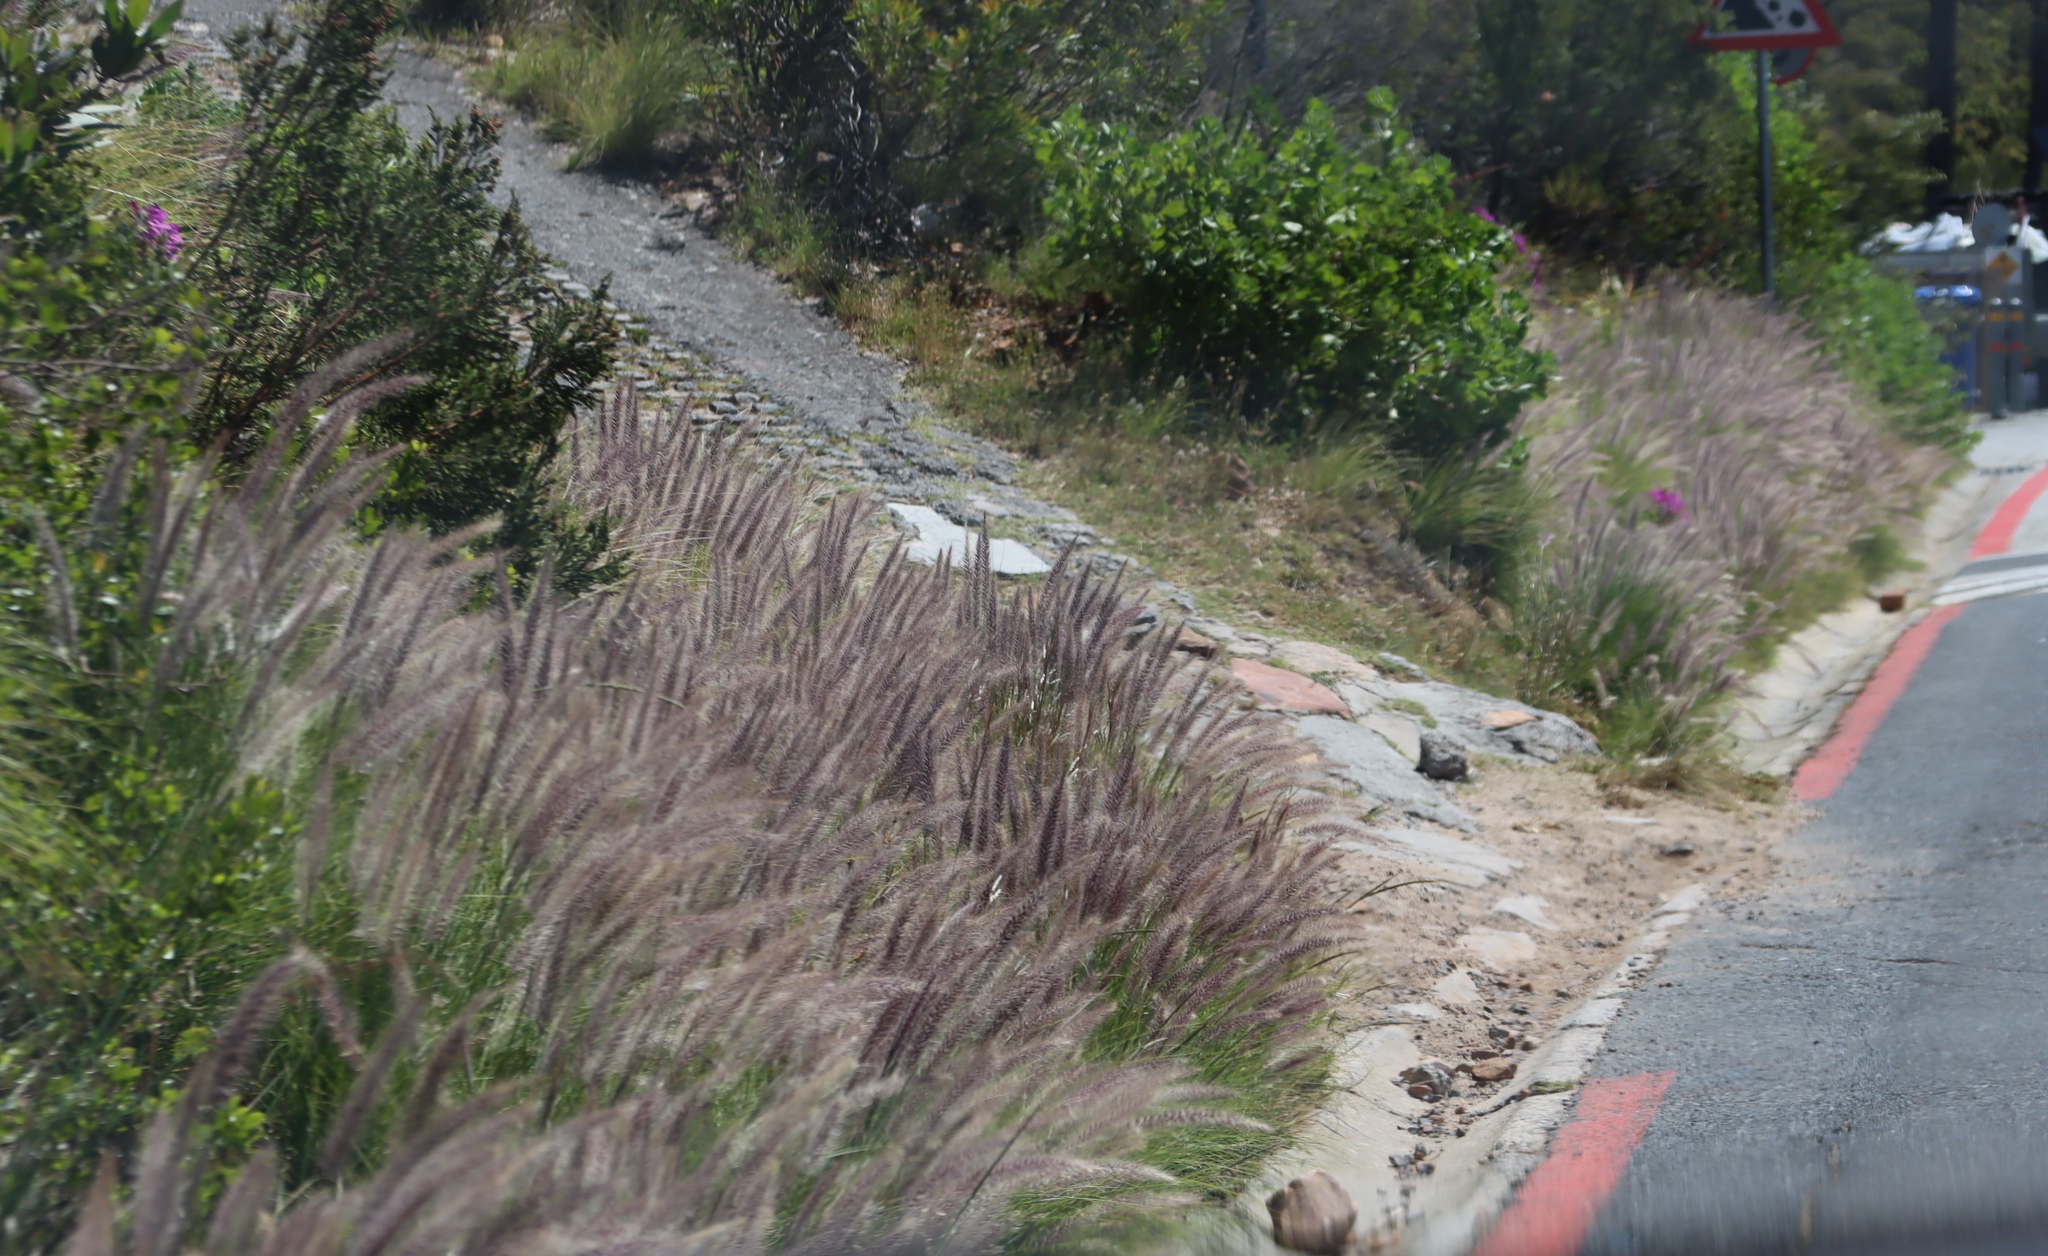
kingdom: Plantae
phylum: Tracheophyta
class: Liliopsida
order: Poales
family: Poaceae
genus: Cenchrus
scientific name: Cenchrus setaceus
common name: Crimson fountaingrass
